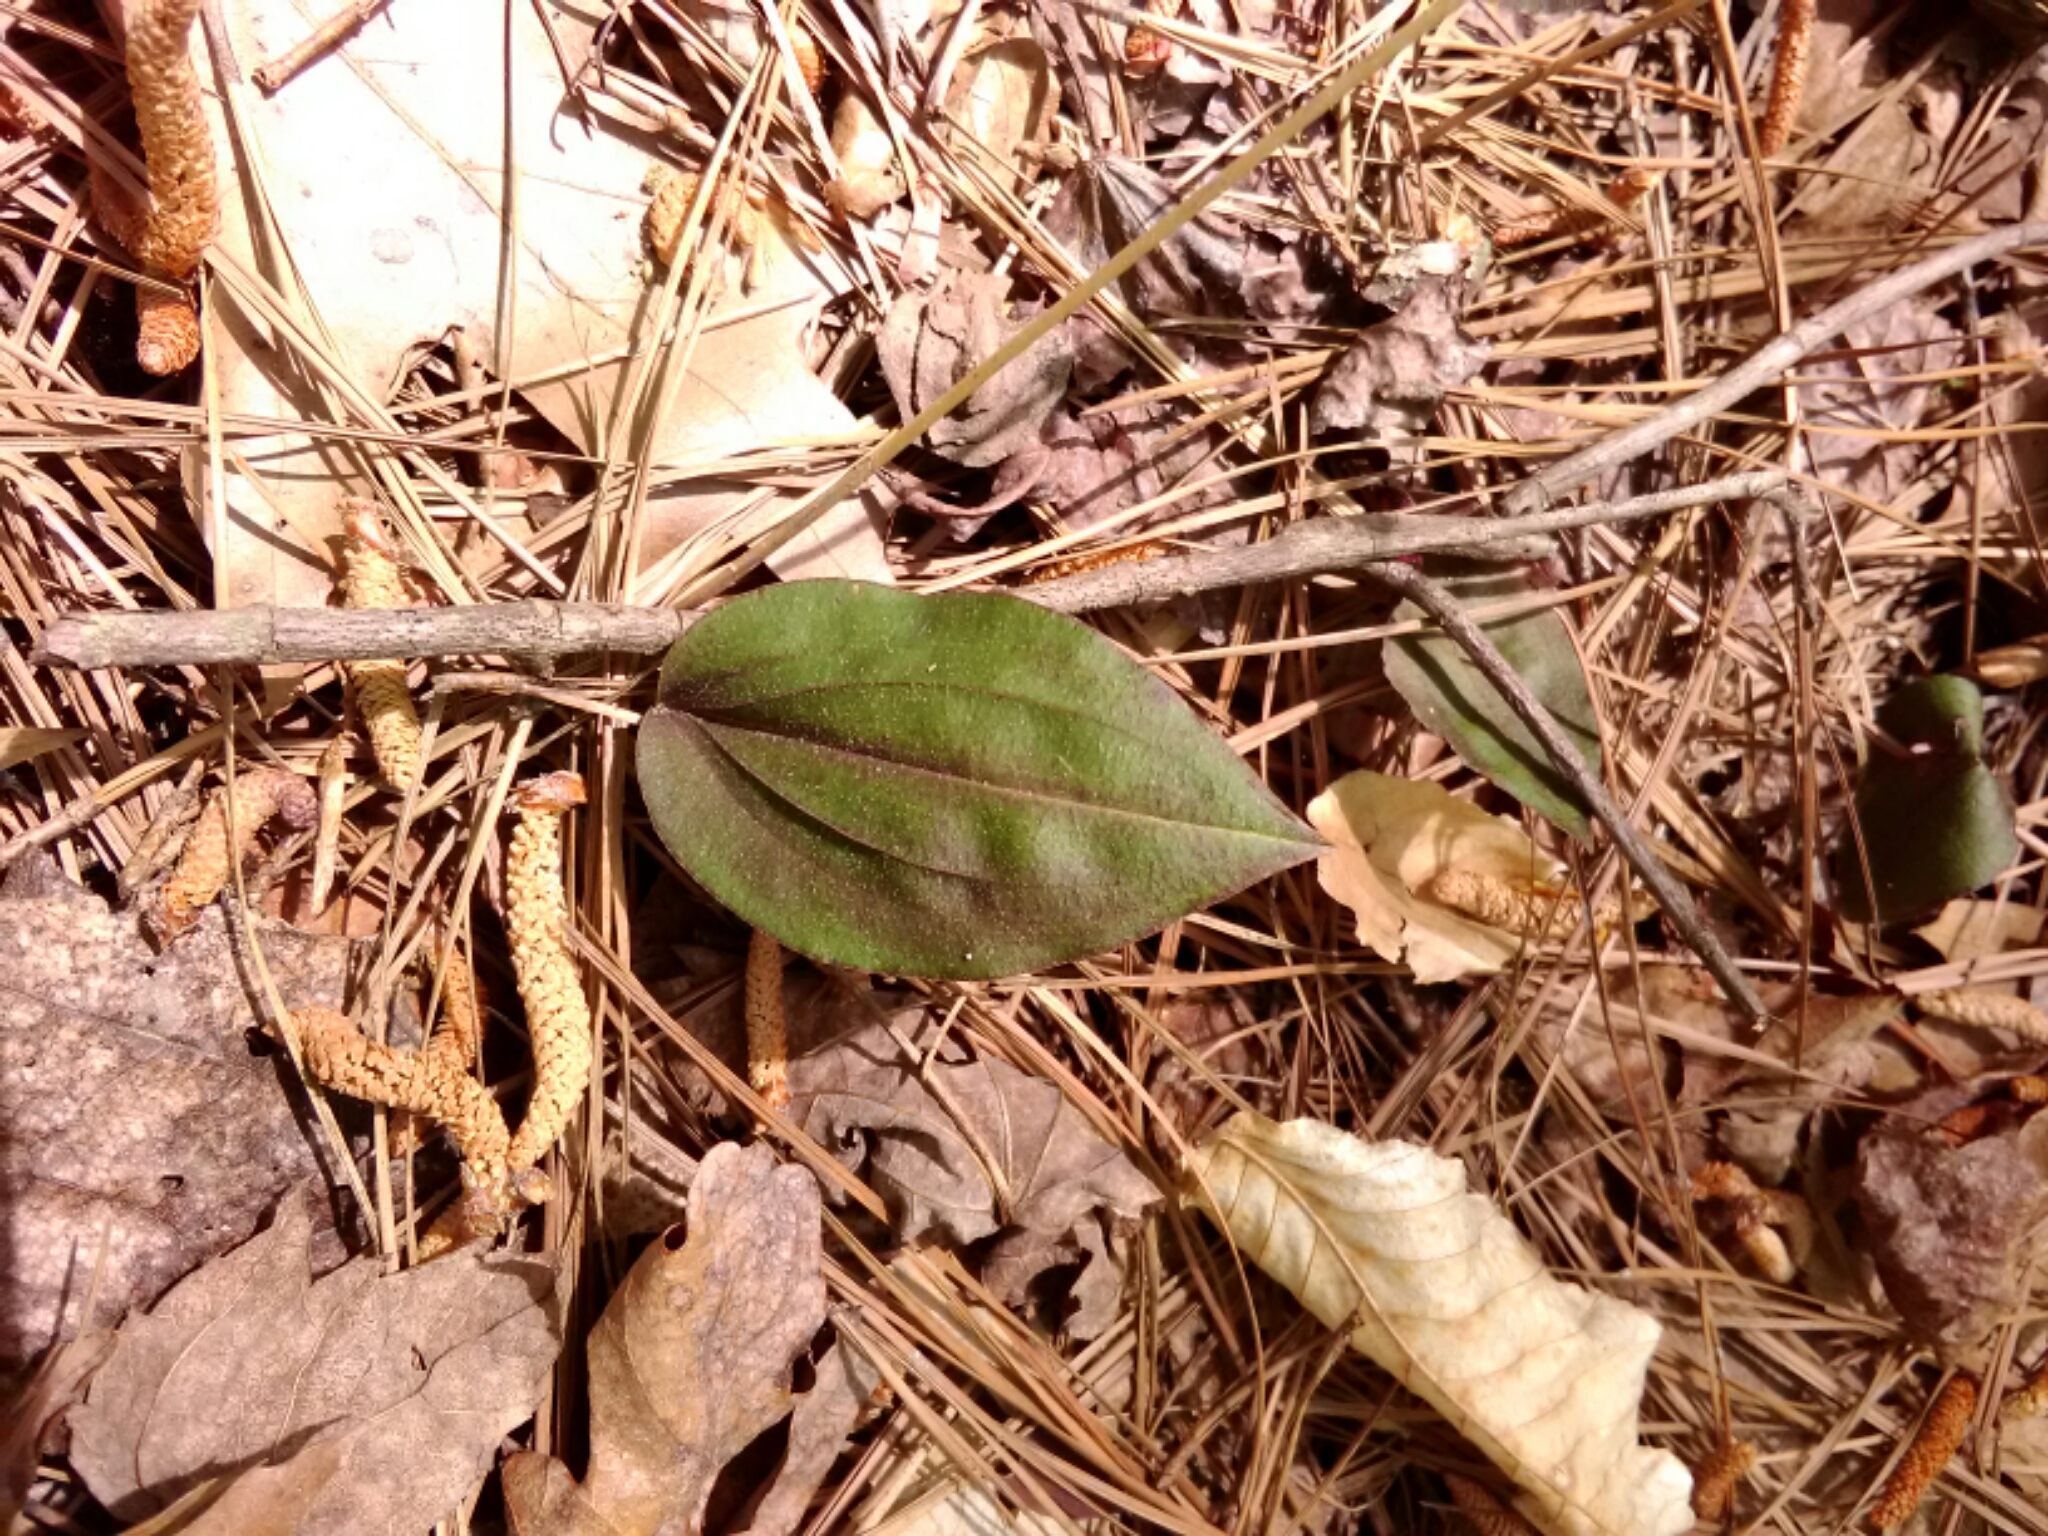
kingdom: Plantae
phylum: Tracheophyta
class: Liliopsida
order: Asparagales
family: Orchidaceae
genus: Tipularia
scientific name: Tipularia discolor
